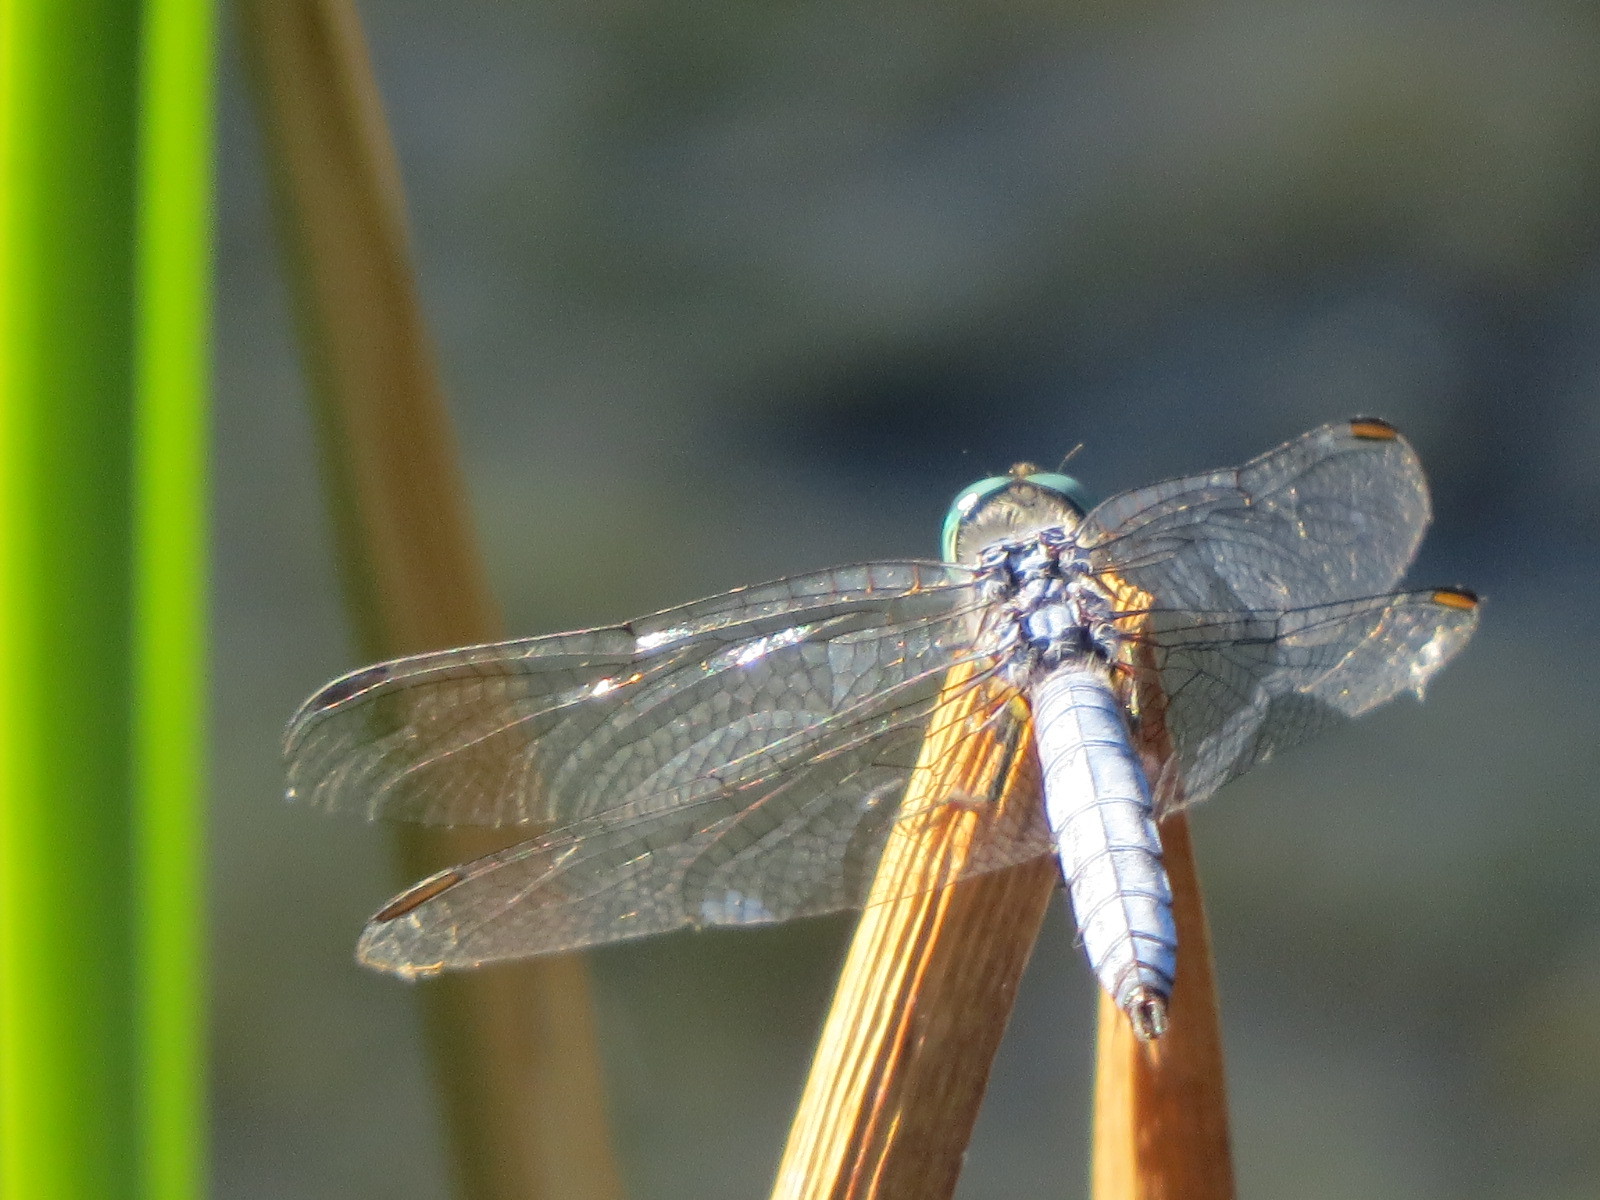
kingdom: Animalia
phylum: Arthropoda
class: Insecta
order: Odonata
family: Libellulidae
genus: Pachydiplax
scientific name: Pachydiplax longipennis
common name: Blue dasher
